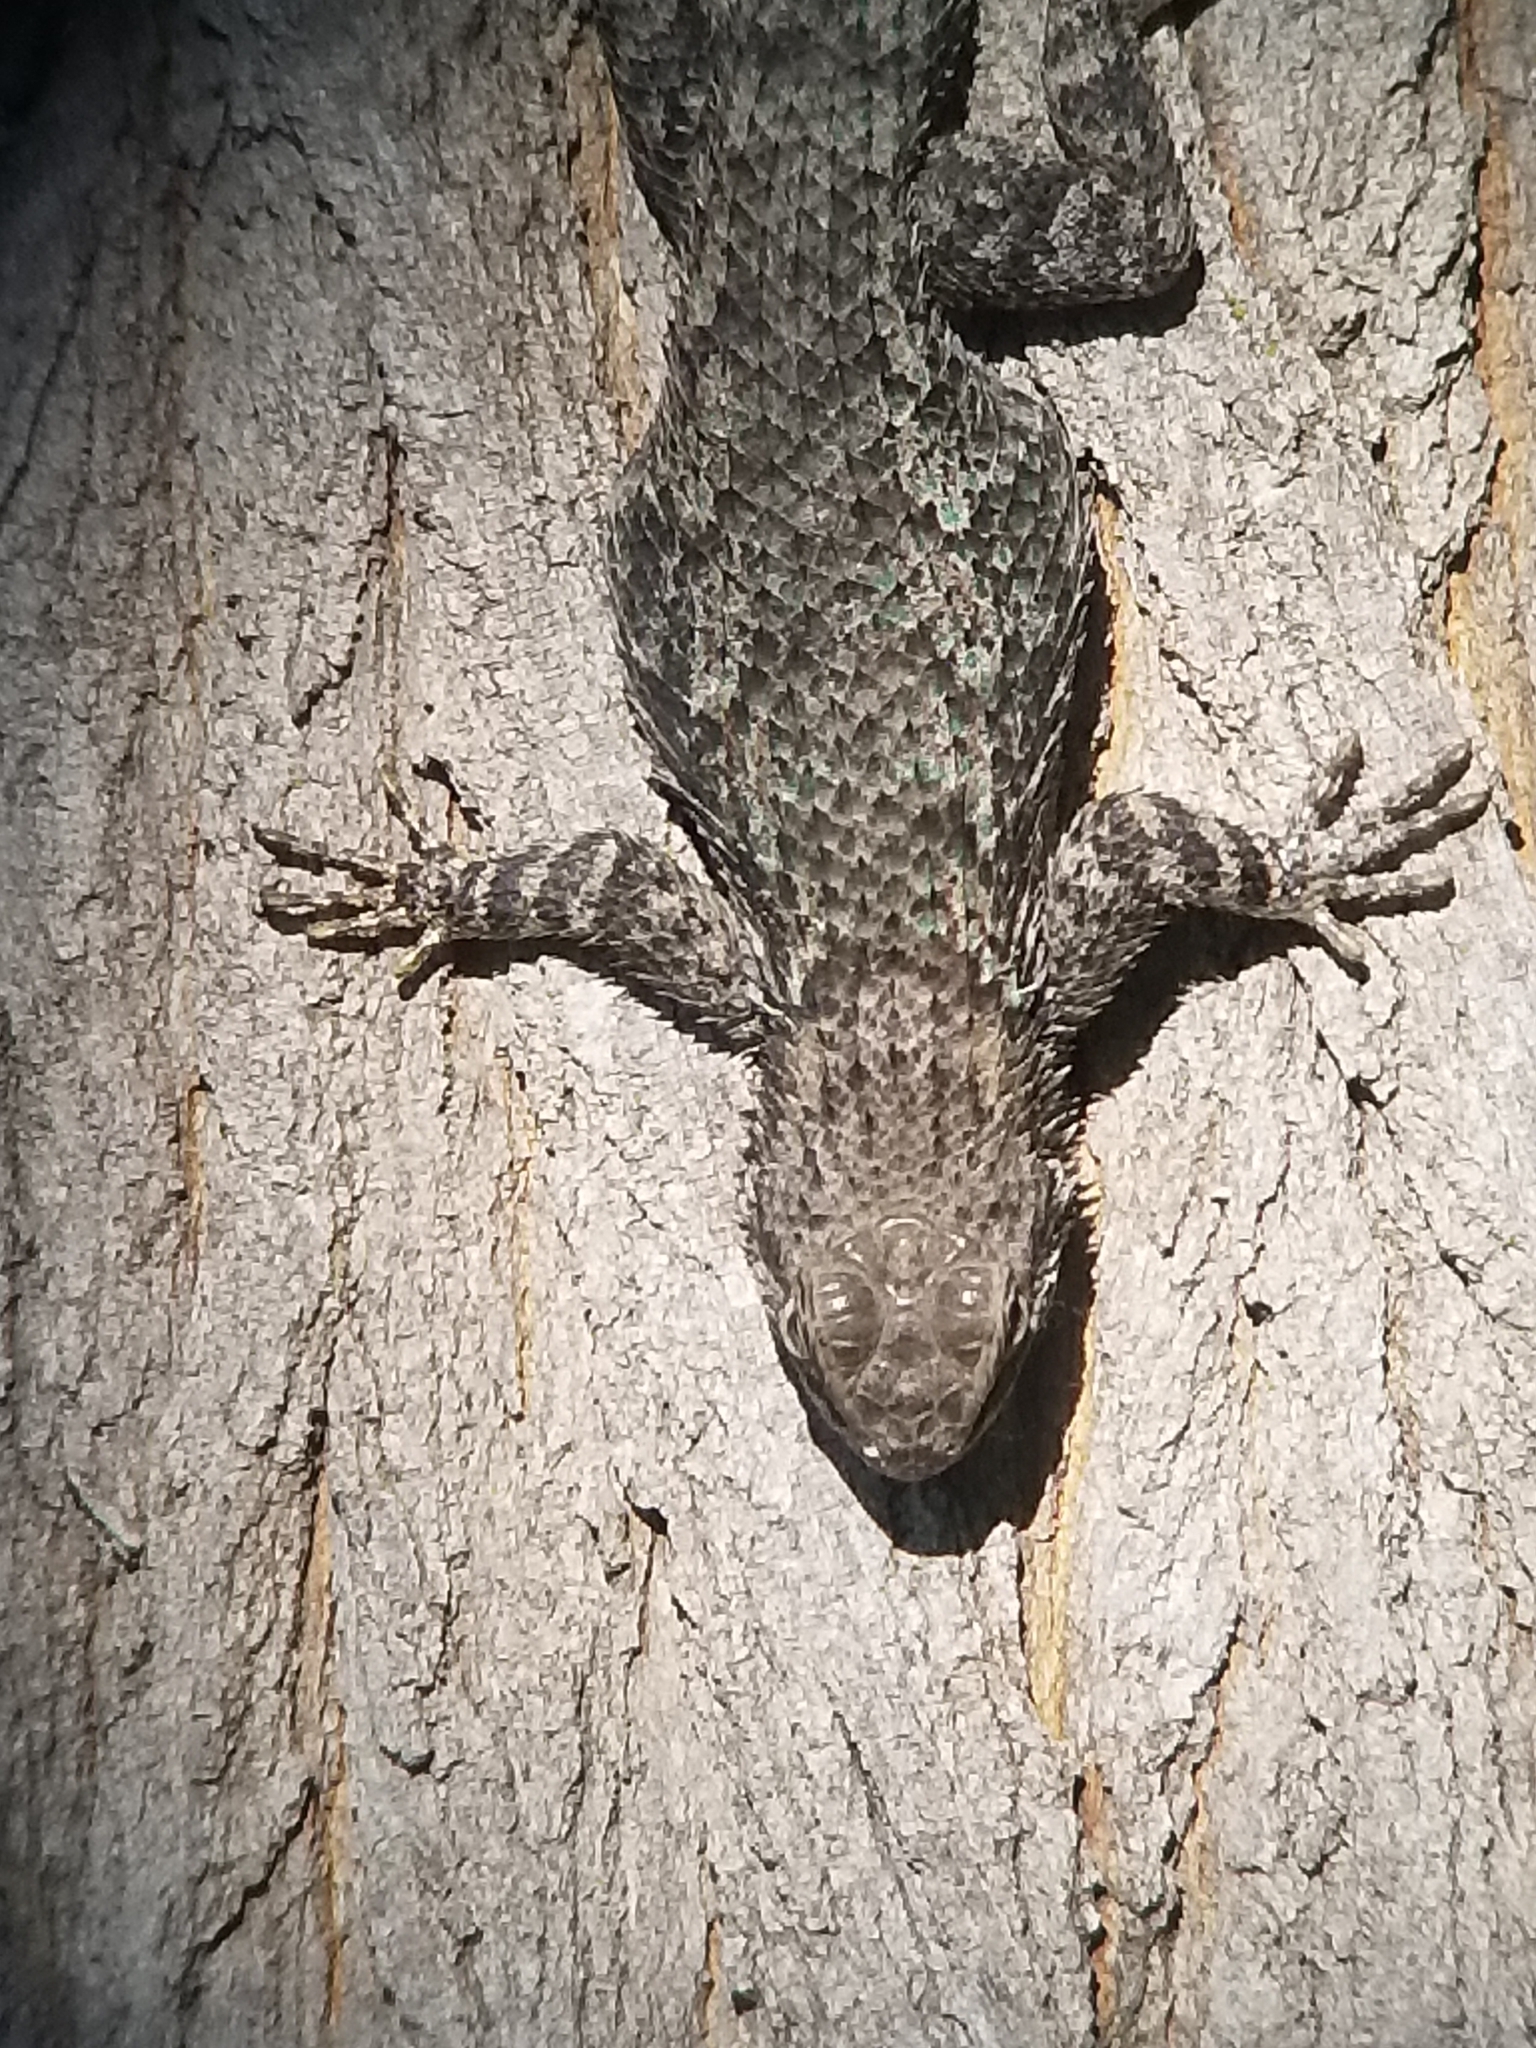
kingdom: Animalia
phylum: Chordata
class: Squamata
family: Phrynosomatidae
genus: Sceloporus
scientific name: Sceloporus clarkii
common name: Clark's spiny lizard
